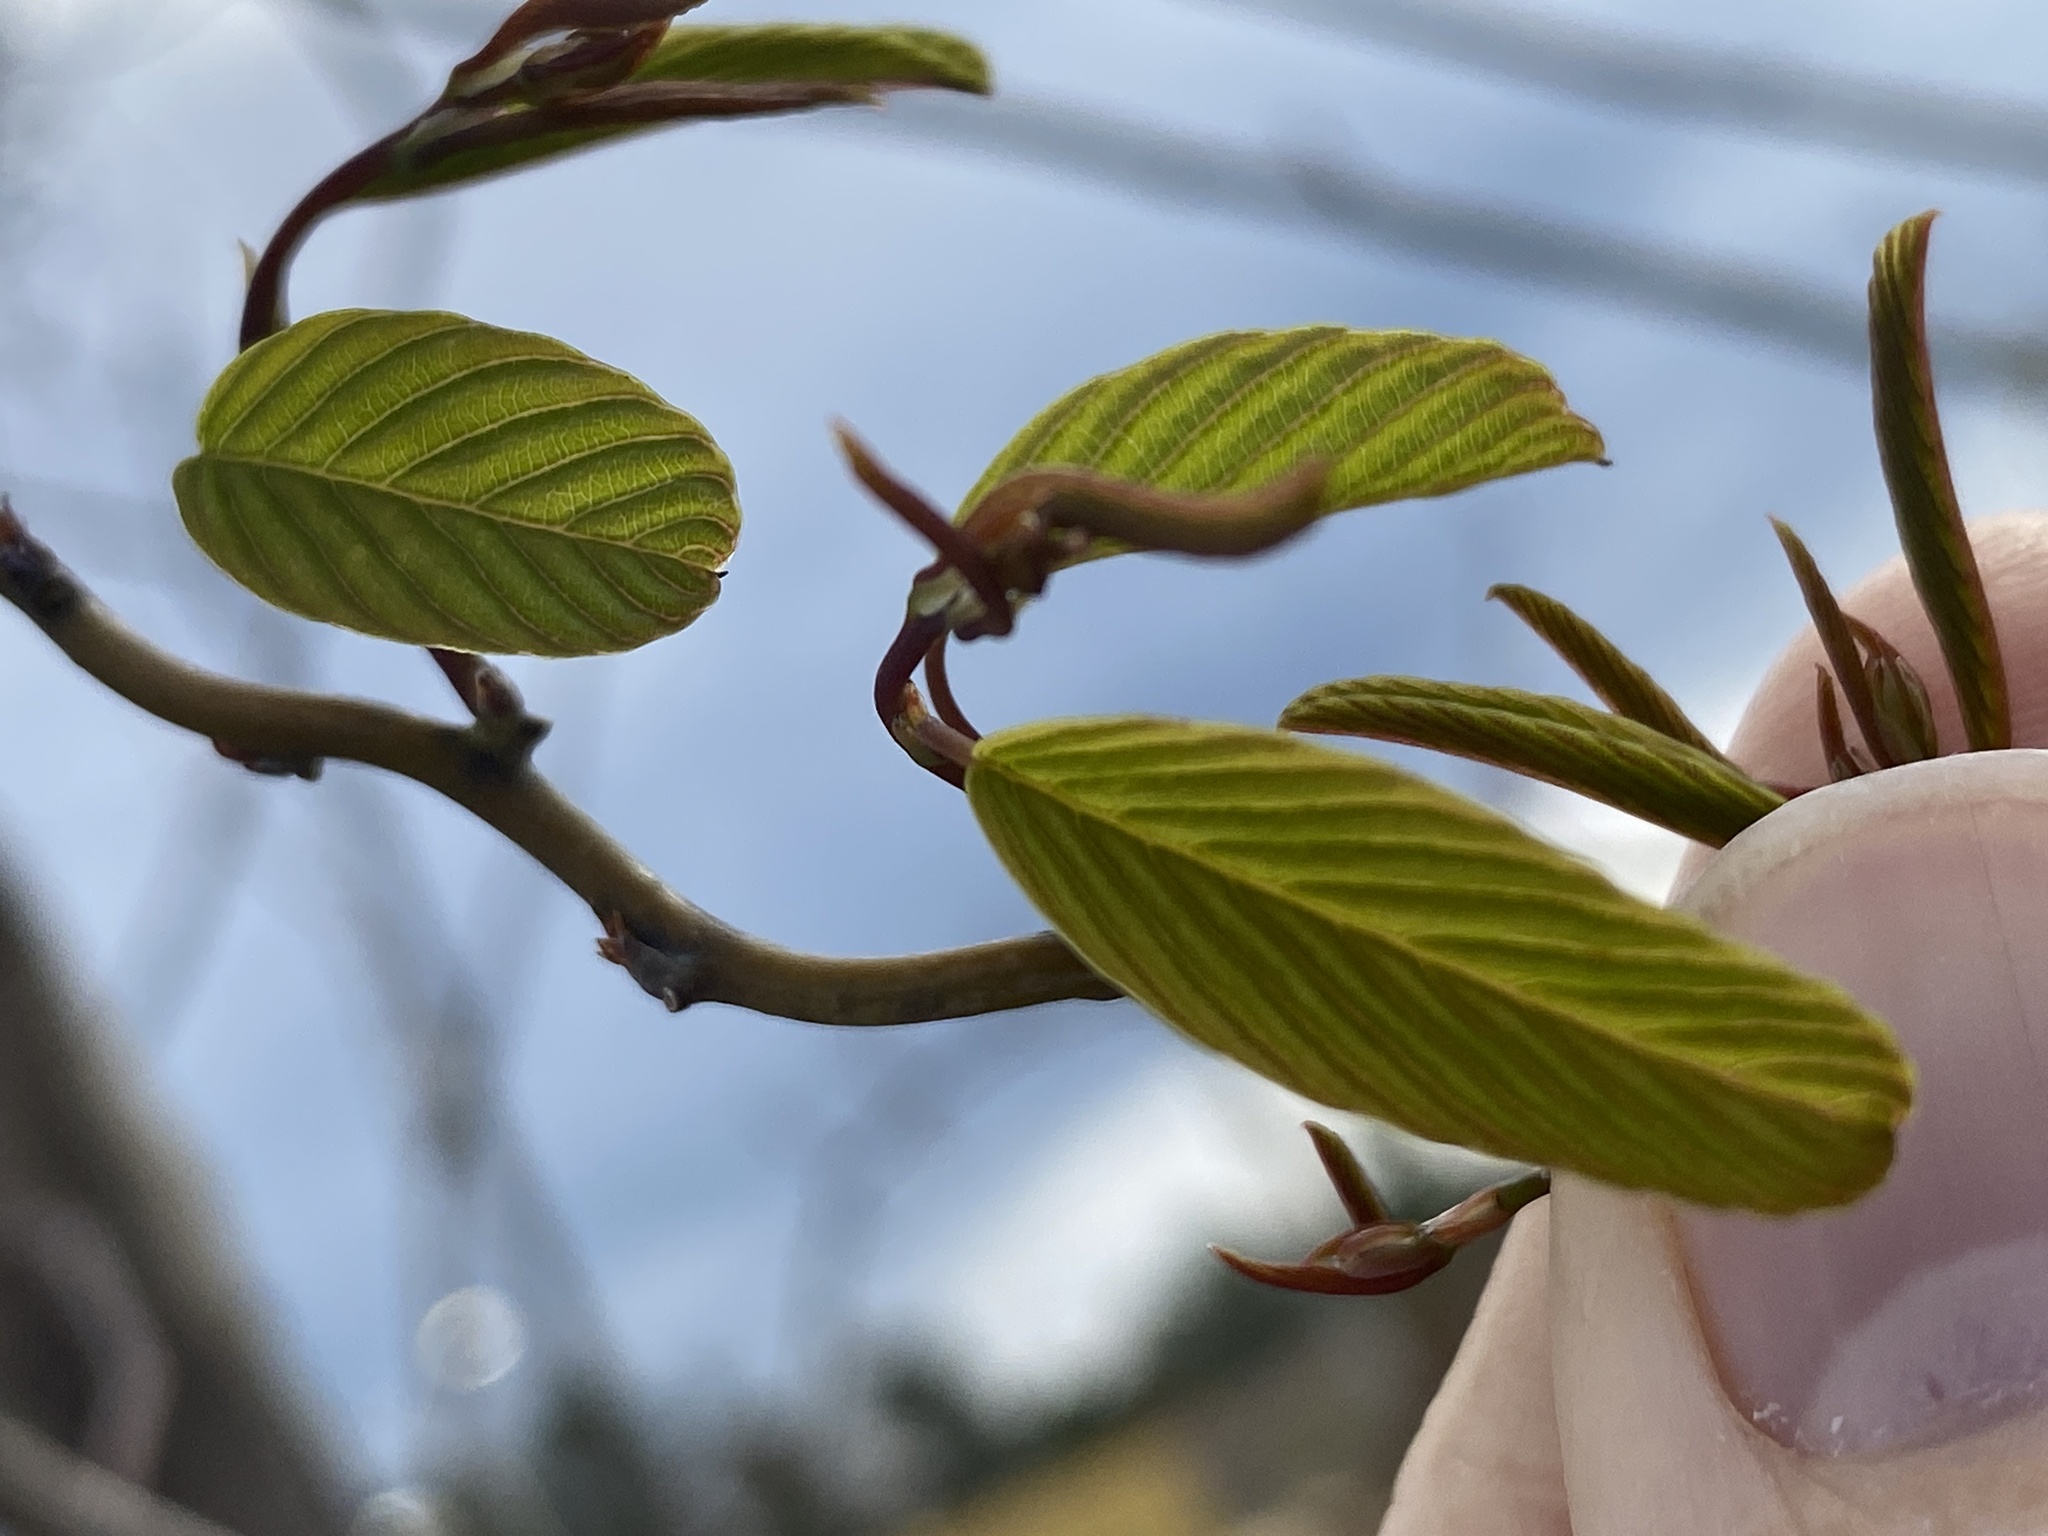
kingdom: Plantae
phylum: Tracheophyta
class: Magnoliopsida
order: Rosales
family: Rhamnaceae
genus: Berchemia
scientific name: Berchemia scandens
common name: Supplejack
